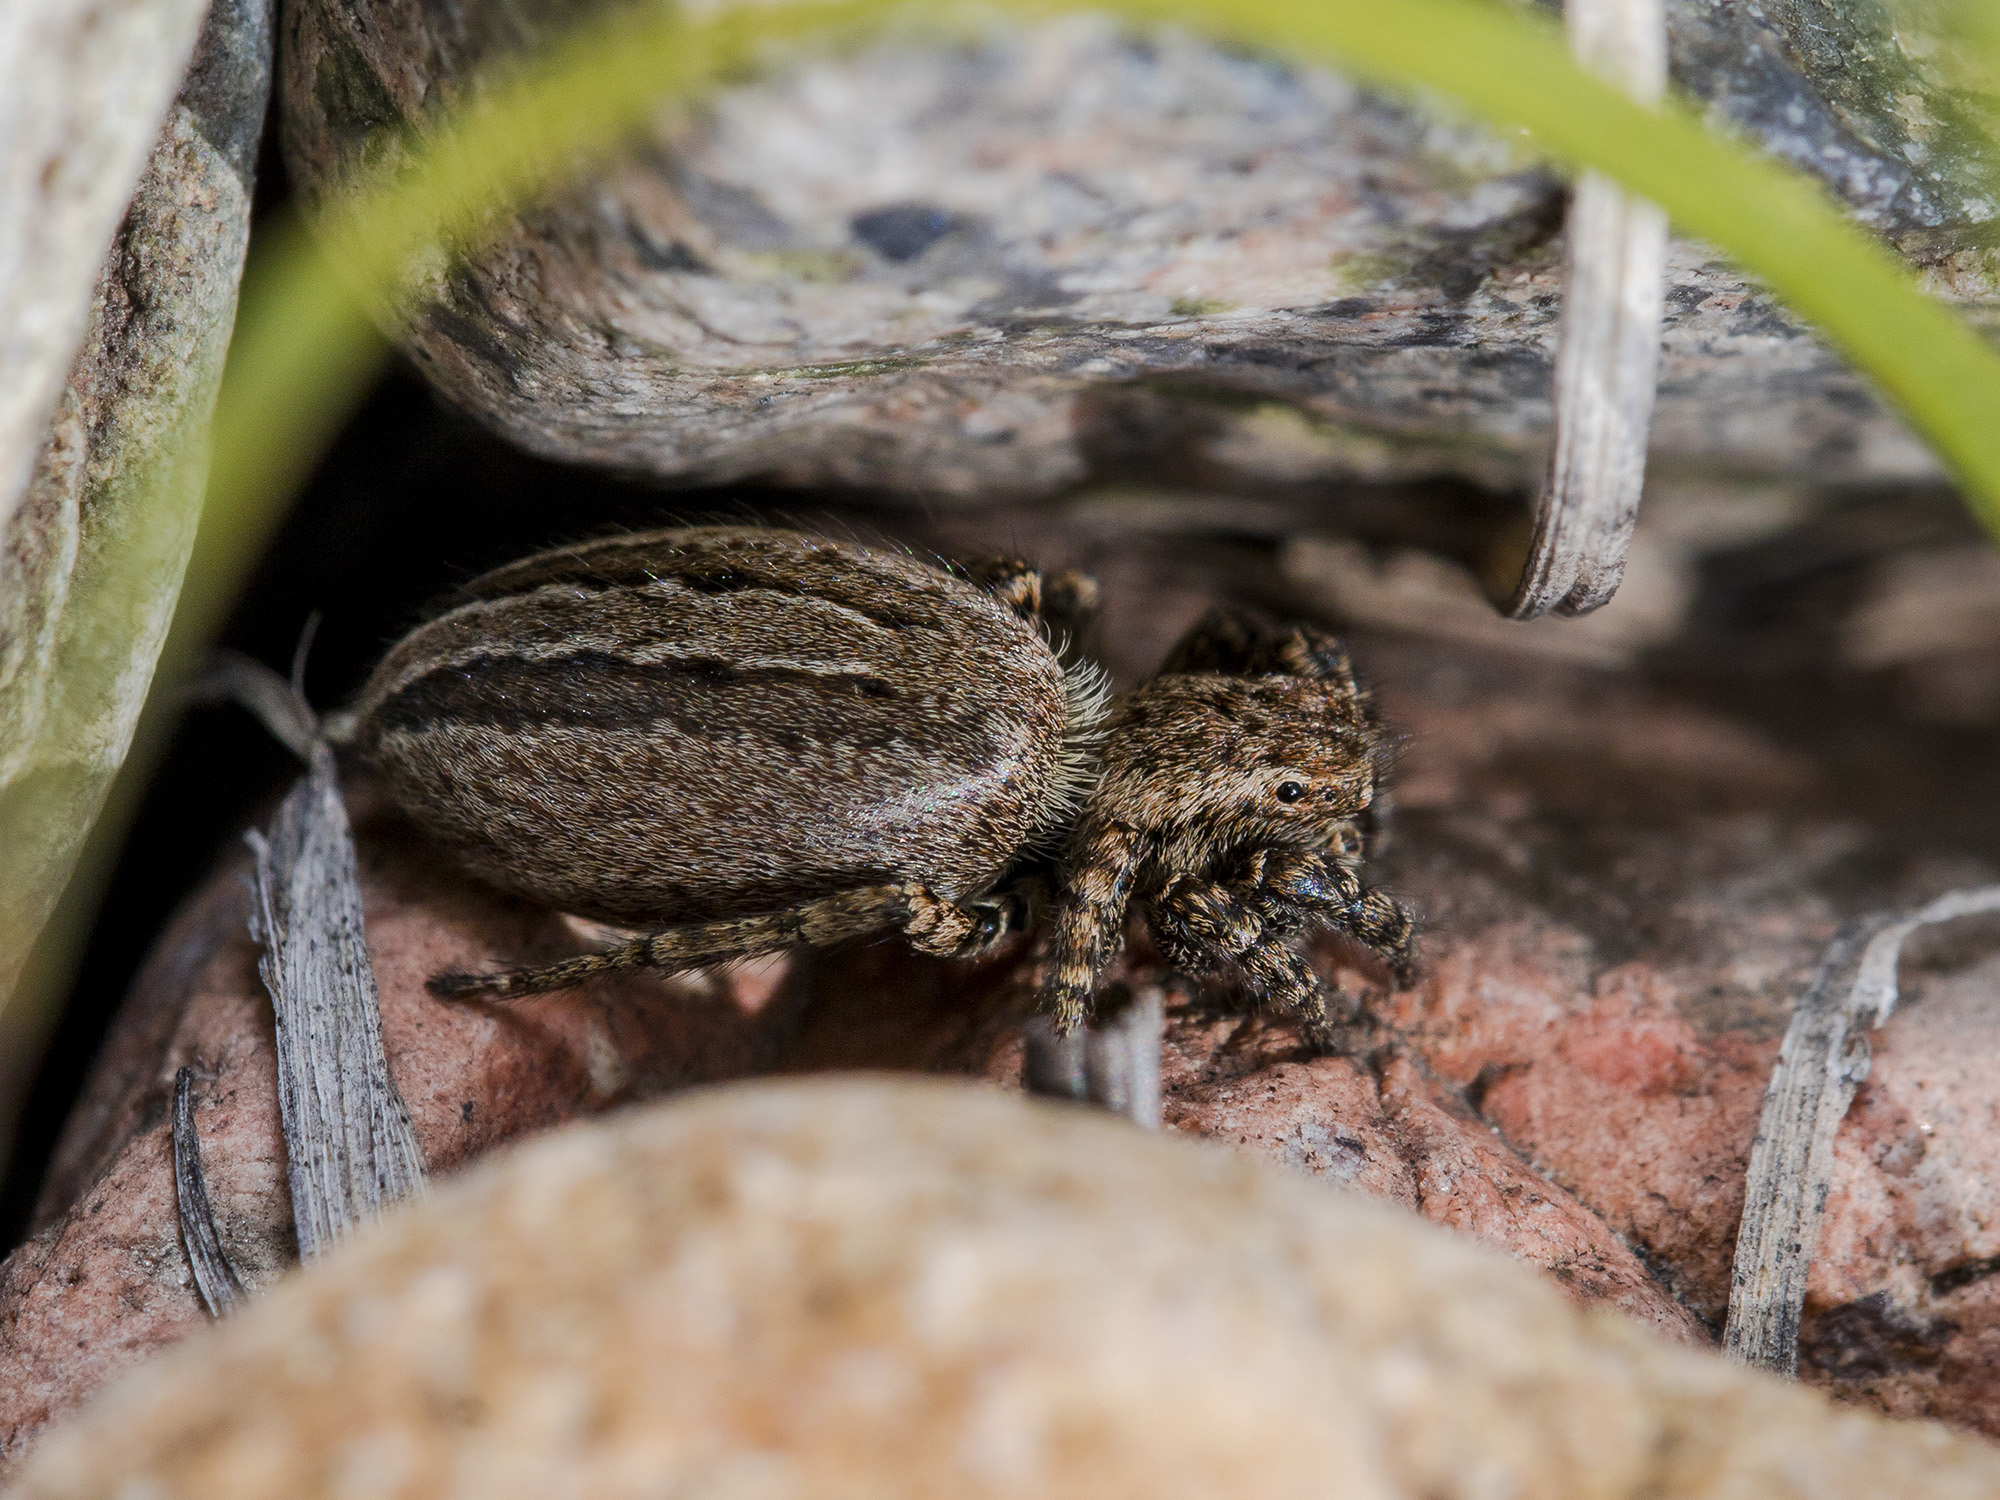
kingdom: Animalia
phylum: Arthropoda
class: Arachnida
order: Araneae
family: Salticidae
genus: Phlegra
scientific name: Phlegra obscurimagna
